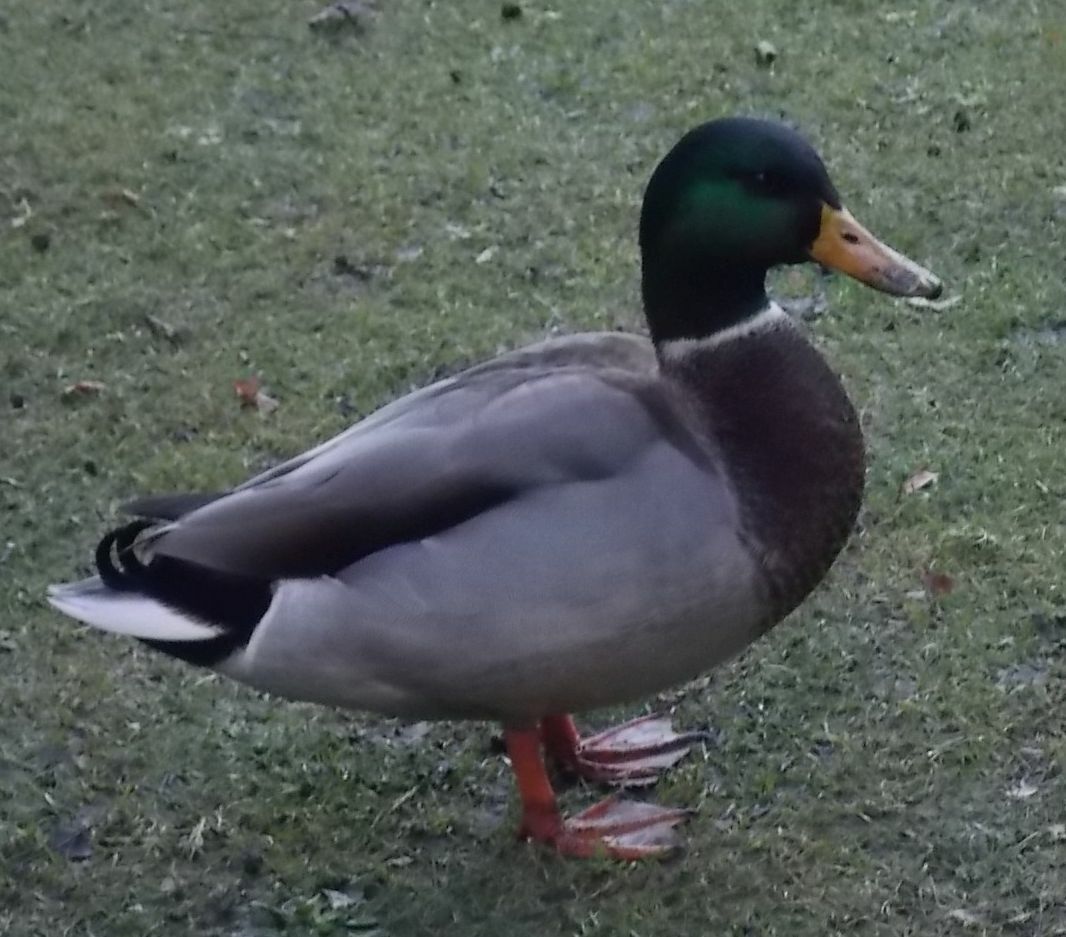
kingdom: Animalia
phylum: Chordata
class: Aves
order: Anseriformes
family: Anatidae
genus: Anas
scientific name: Anas platyrhynchos
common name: Mallard
